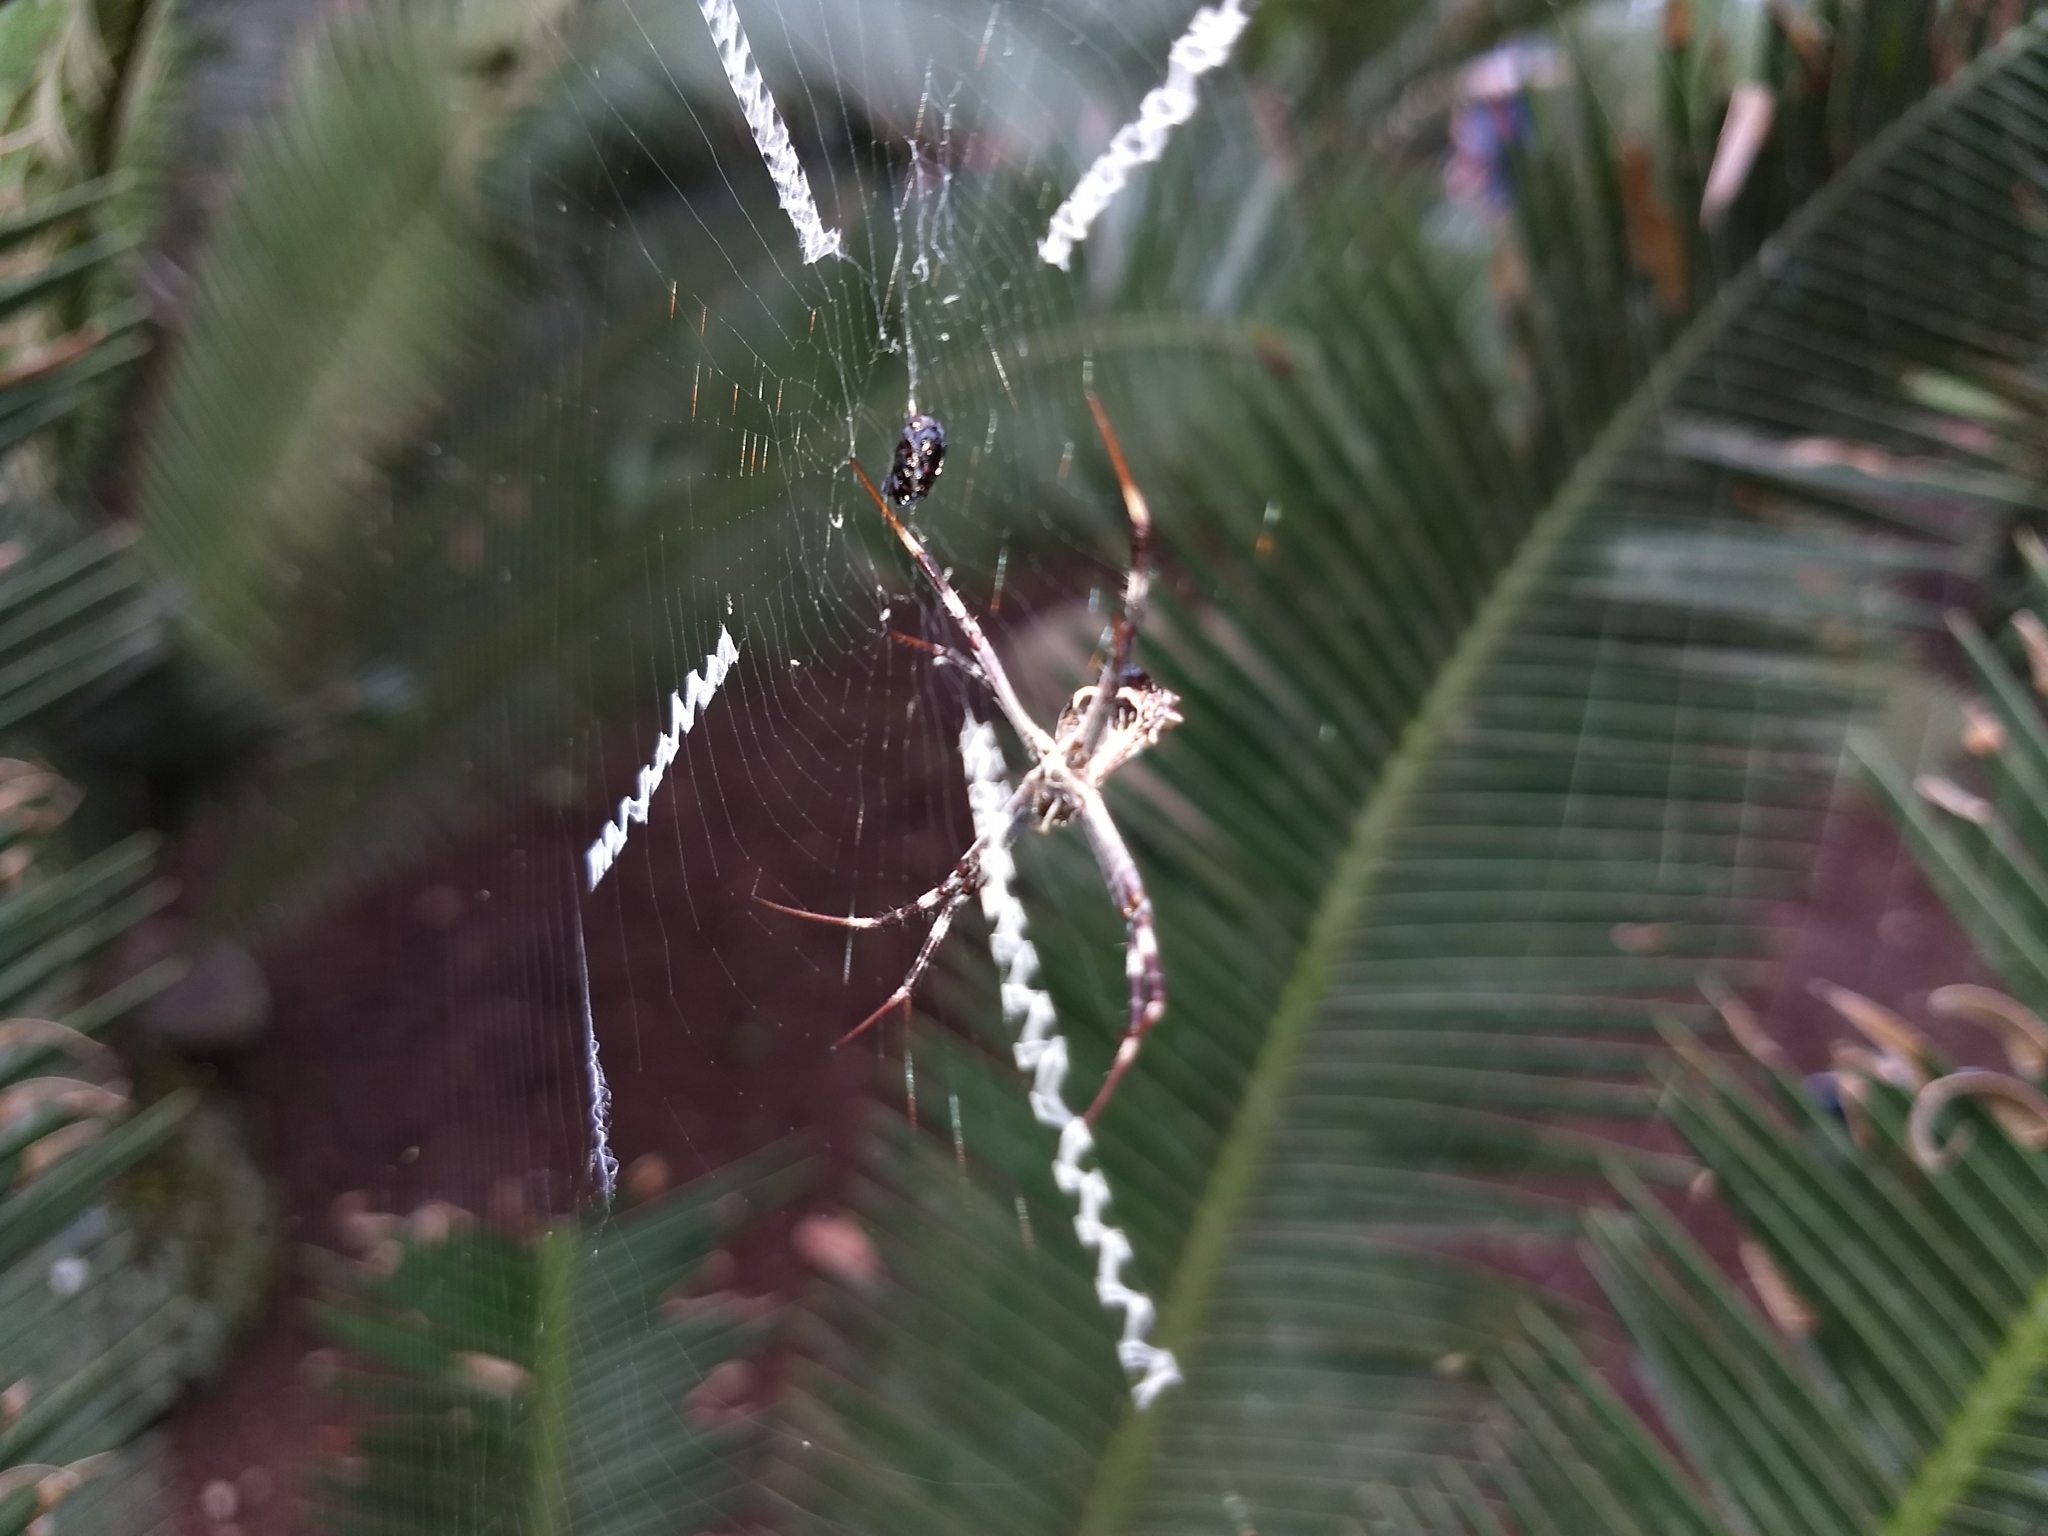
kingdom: Animalia
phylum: Arthropoda
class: Arachnida
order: Araneae
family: Araneidae
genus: Argiope
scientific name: Argiope argentata
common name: Orb weavers
